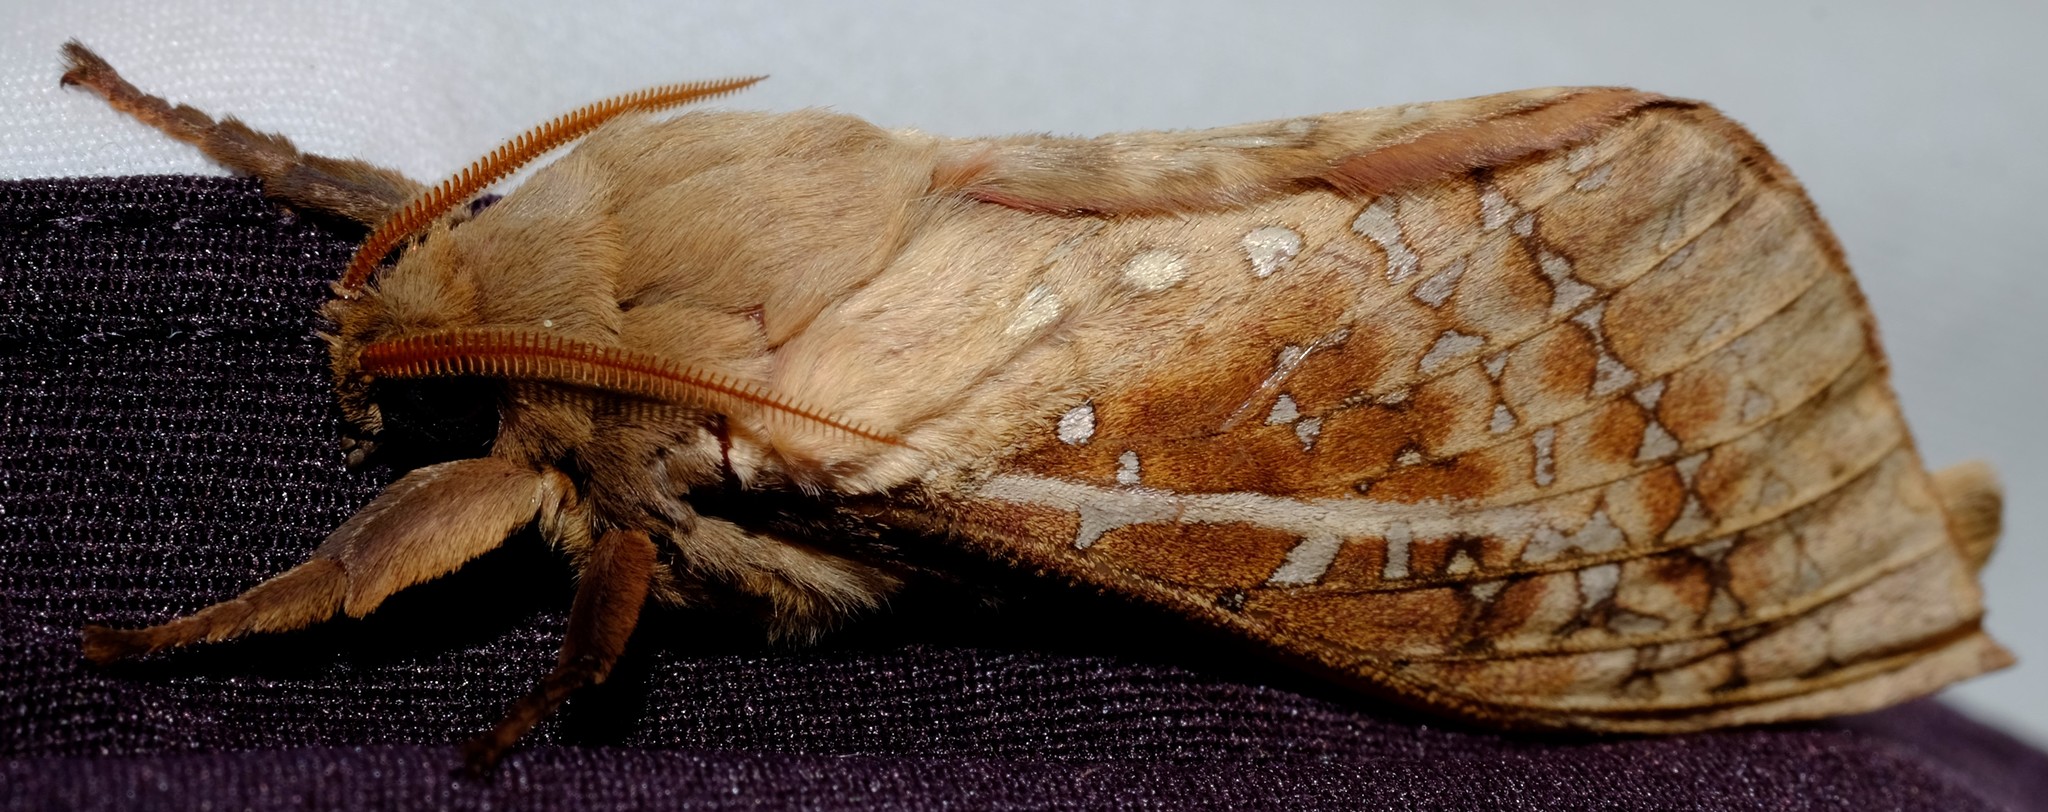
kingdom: Animalia
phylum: Arthropoda
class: Insecta
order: Lepidoptera
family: Hepialidae
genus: Oxycanus
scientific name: Oxycanus australis
